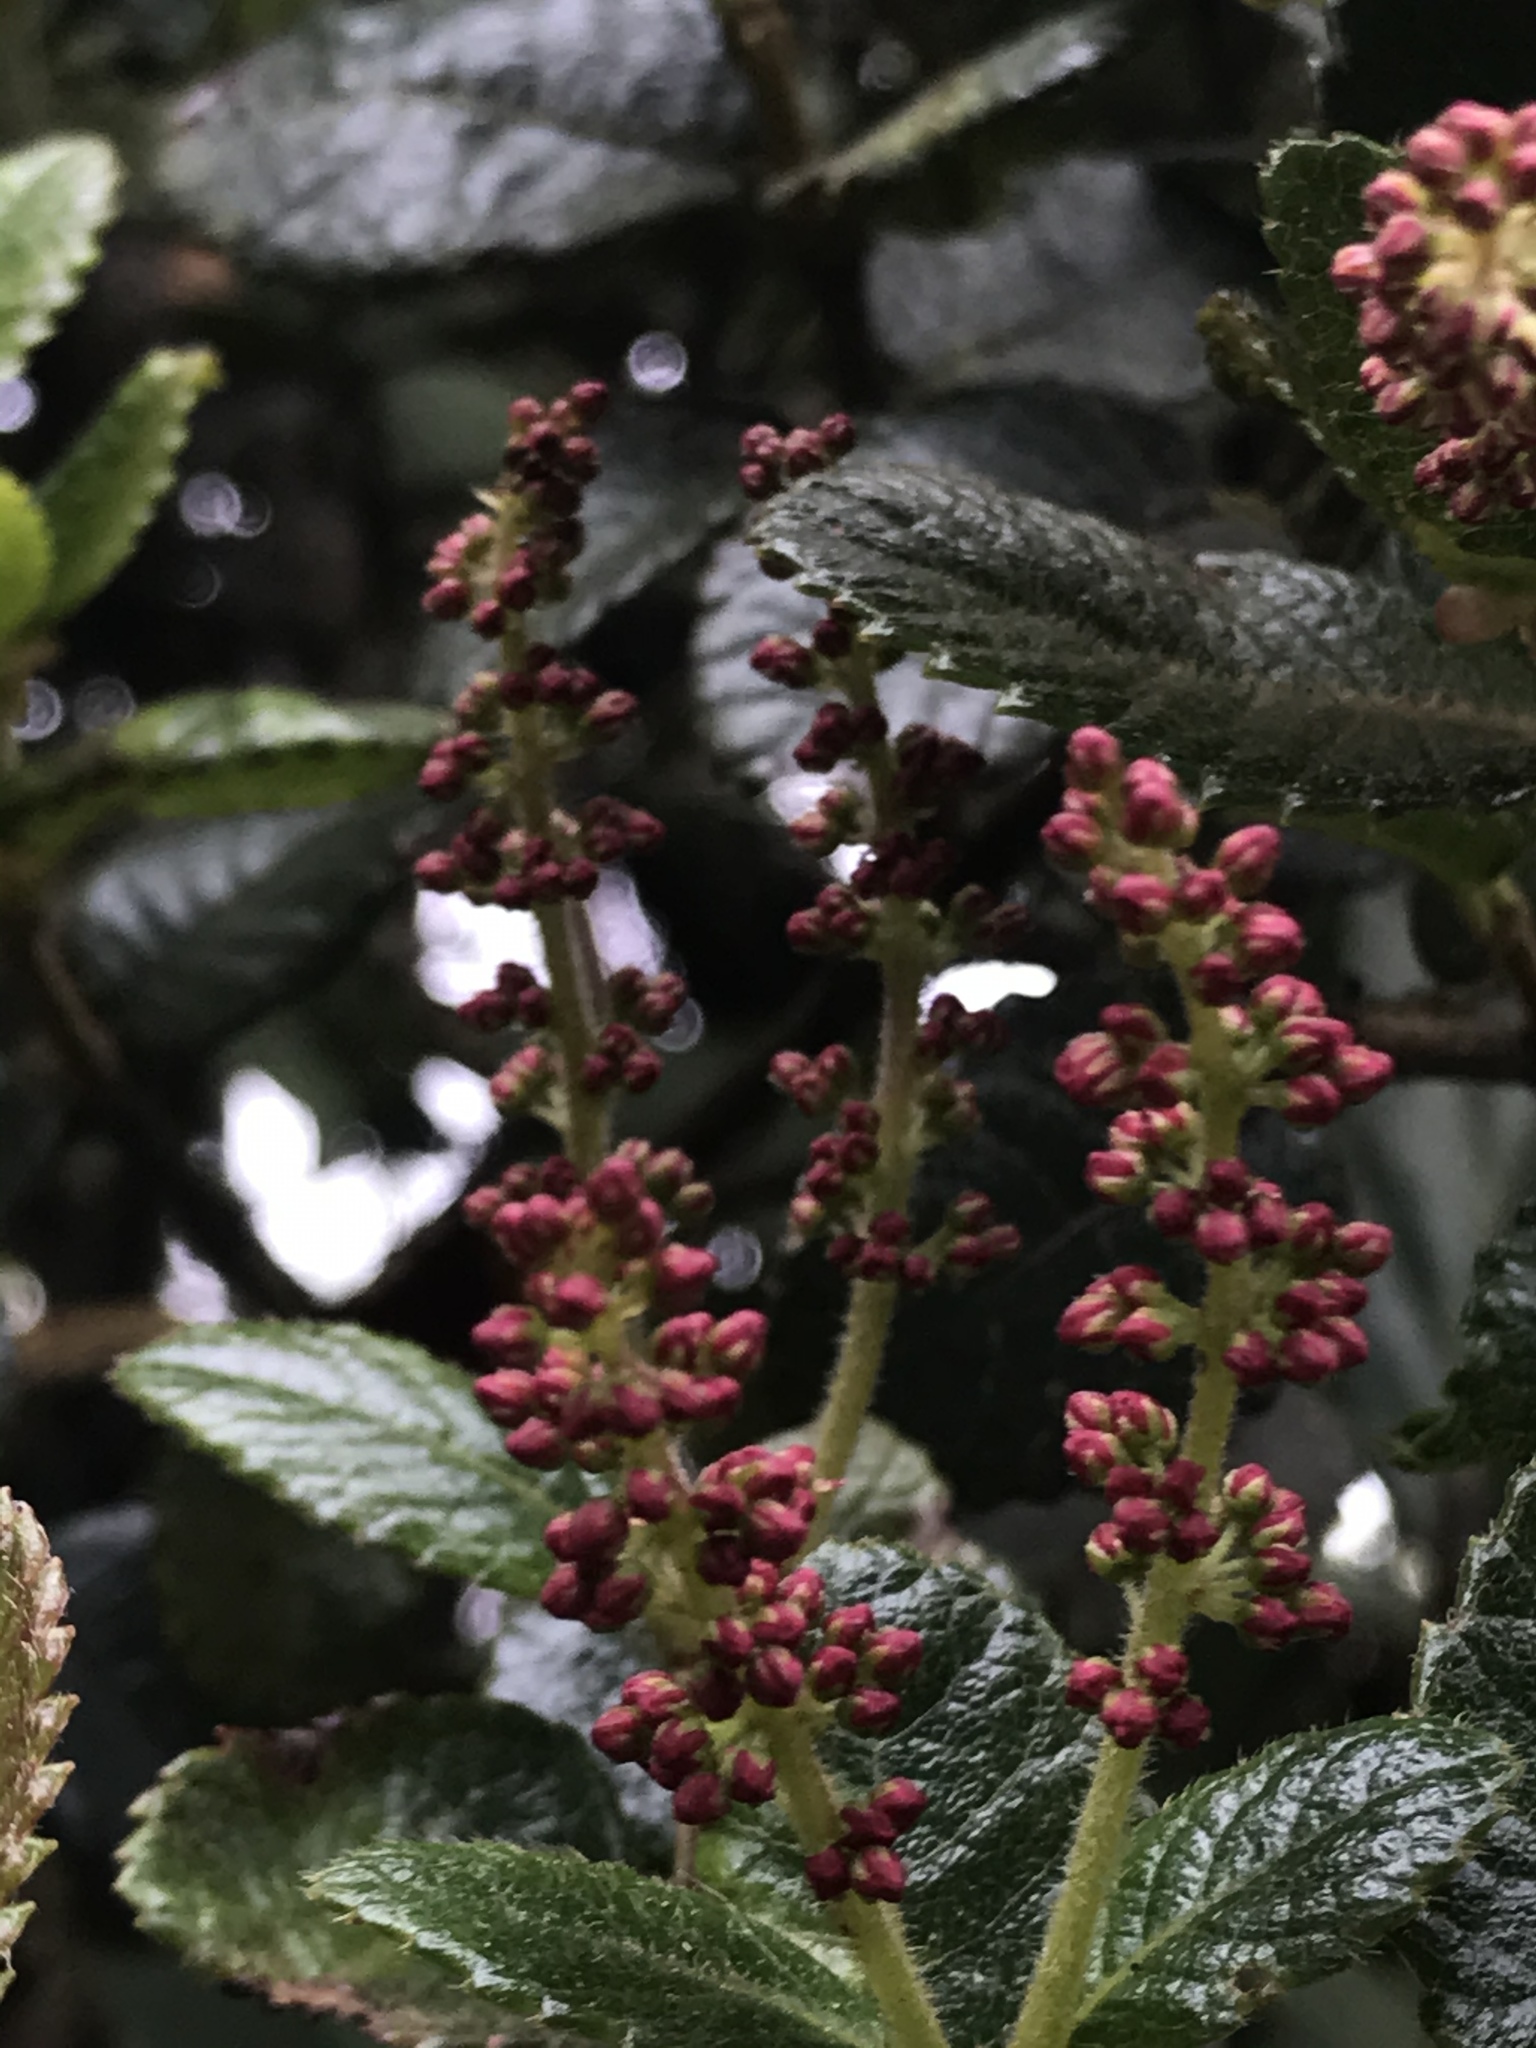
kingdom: Plantae
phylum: Tracheophyta
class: Magnoliopsida
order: Oxalidales
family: Cunoniaceae
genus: Weinmannia
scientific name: Weinmannia rollottii
